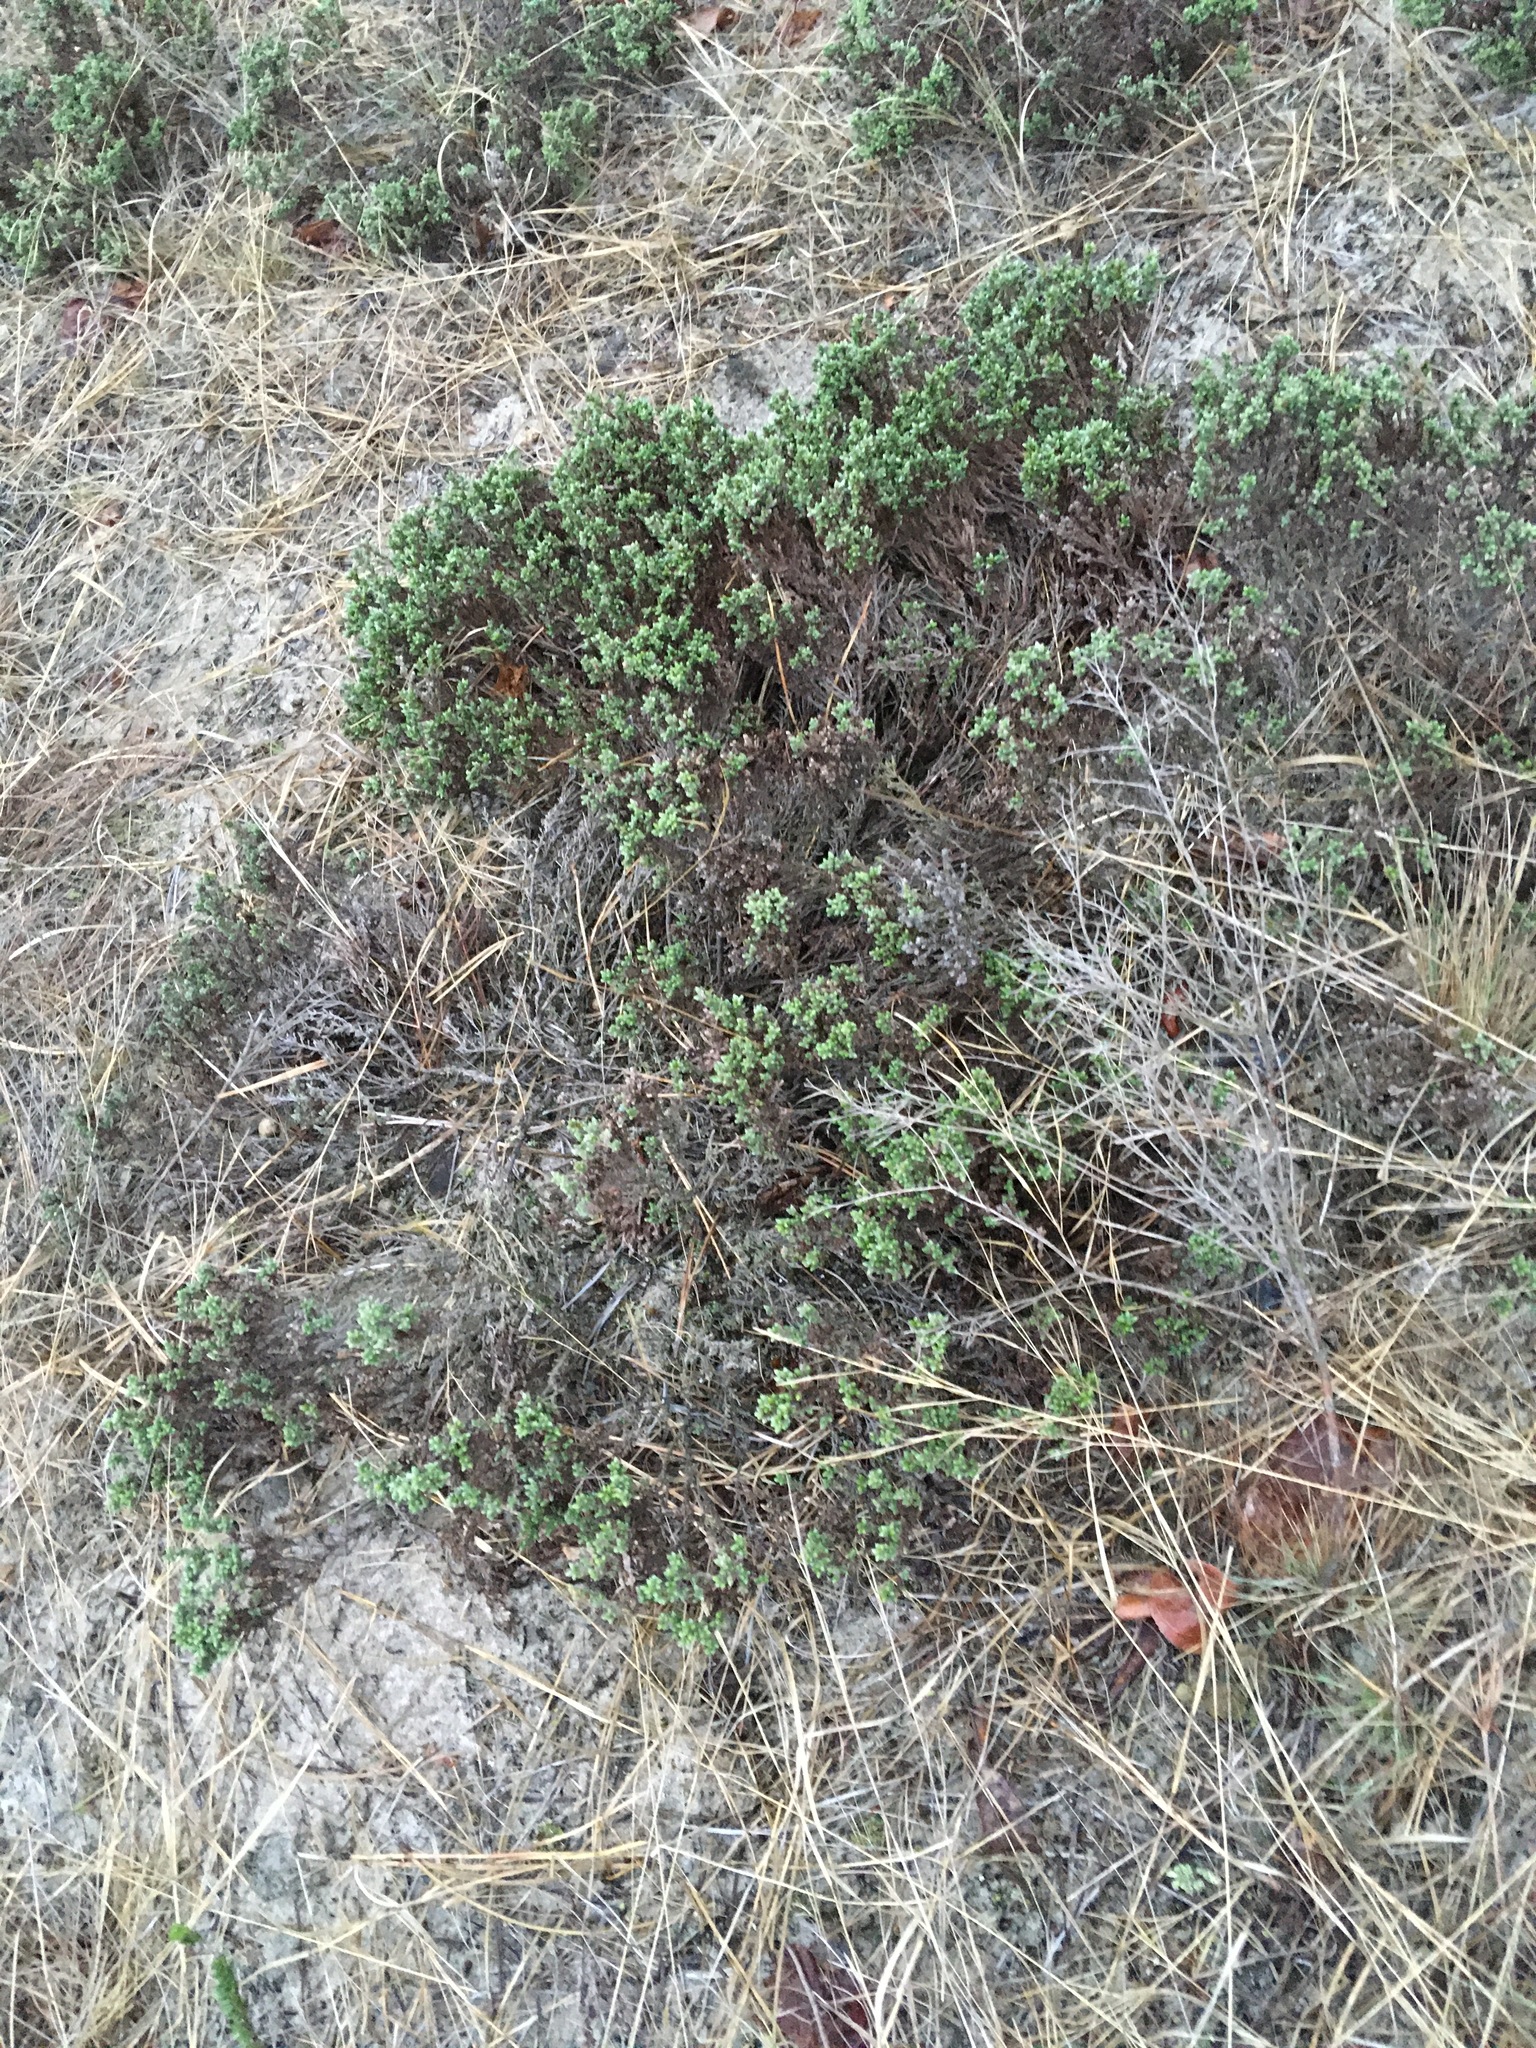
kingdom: Plantae
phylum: Tracheophyta
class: Magnoliopsida
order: Malvales
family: Cistaceae
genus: Hudsonia
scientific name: Hudsonia tomentosa
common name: Beach-heath
